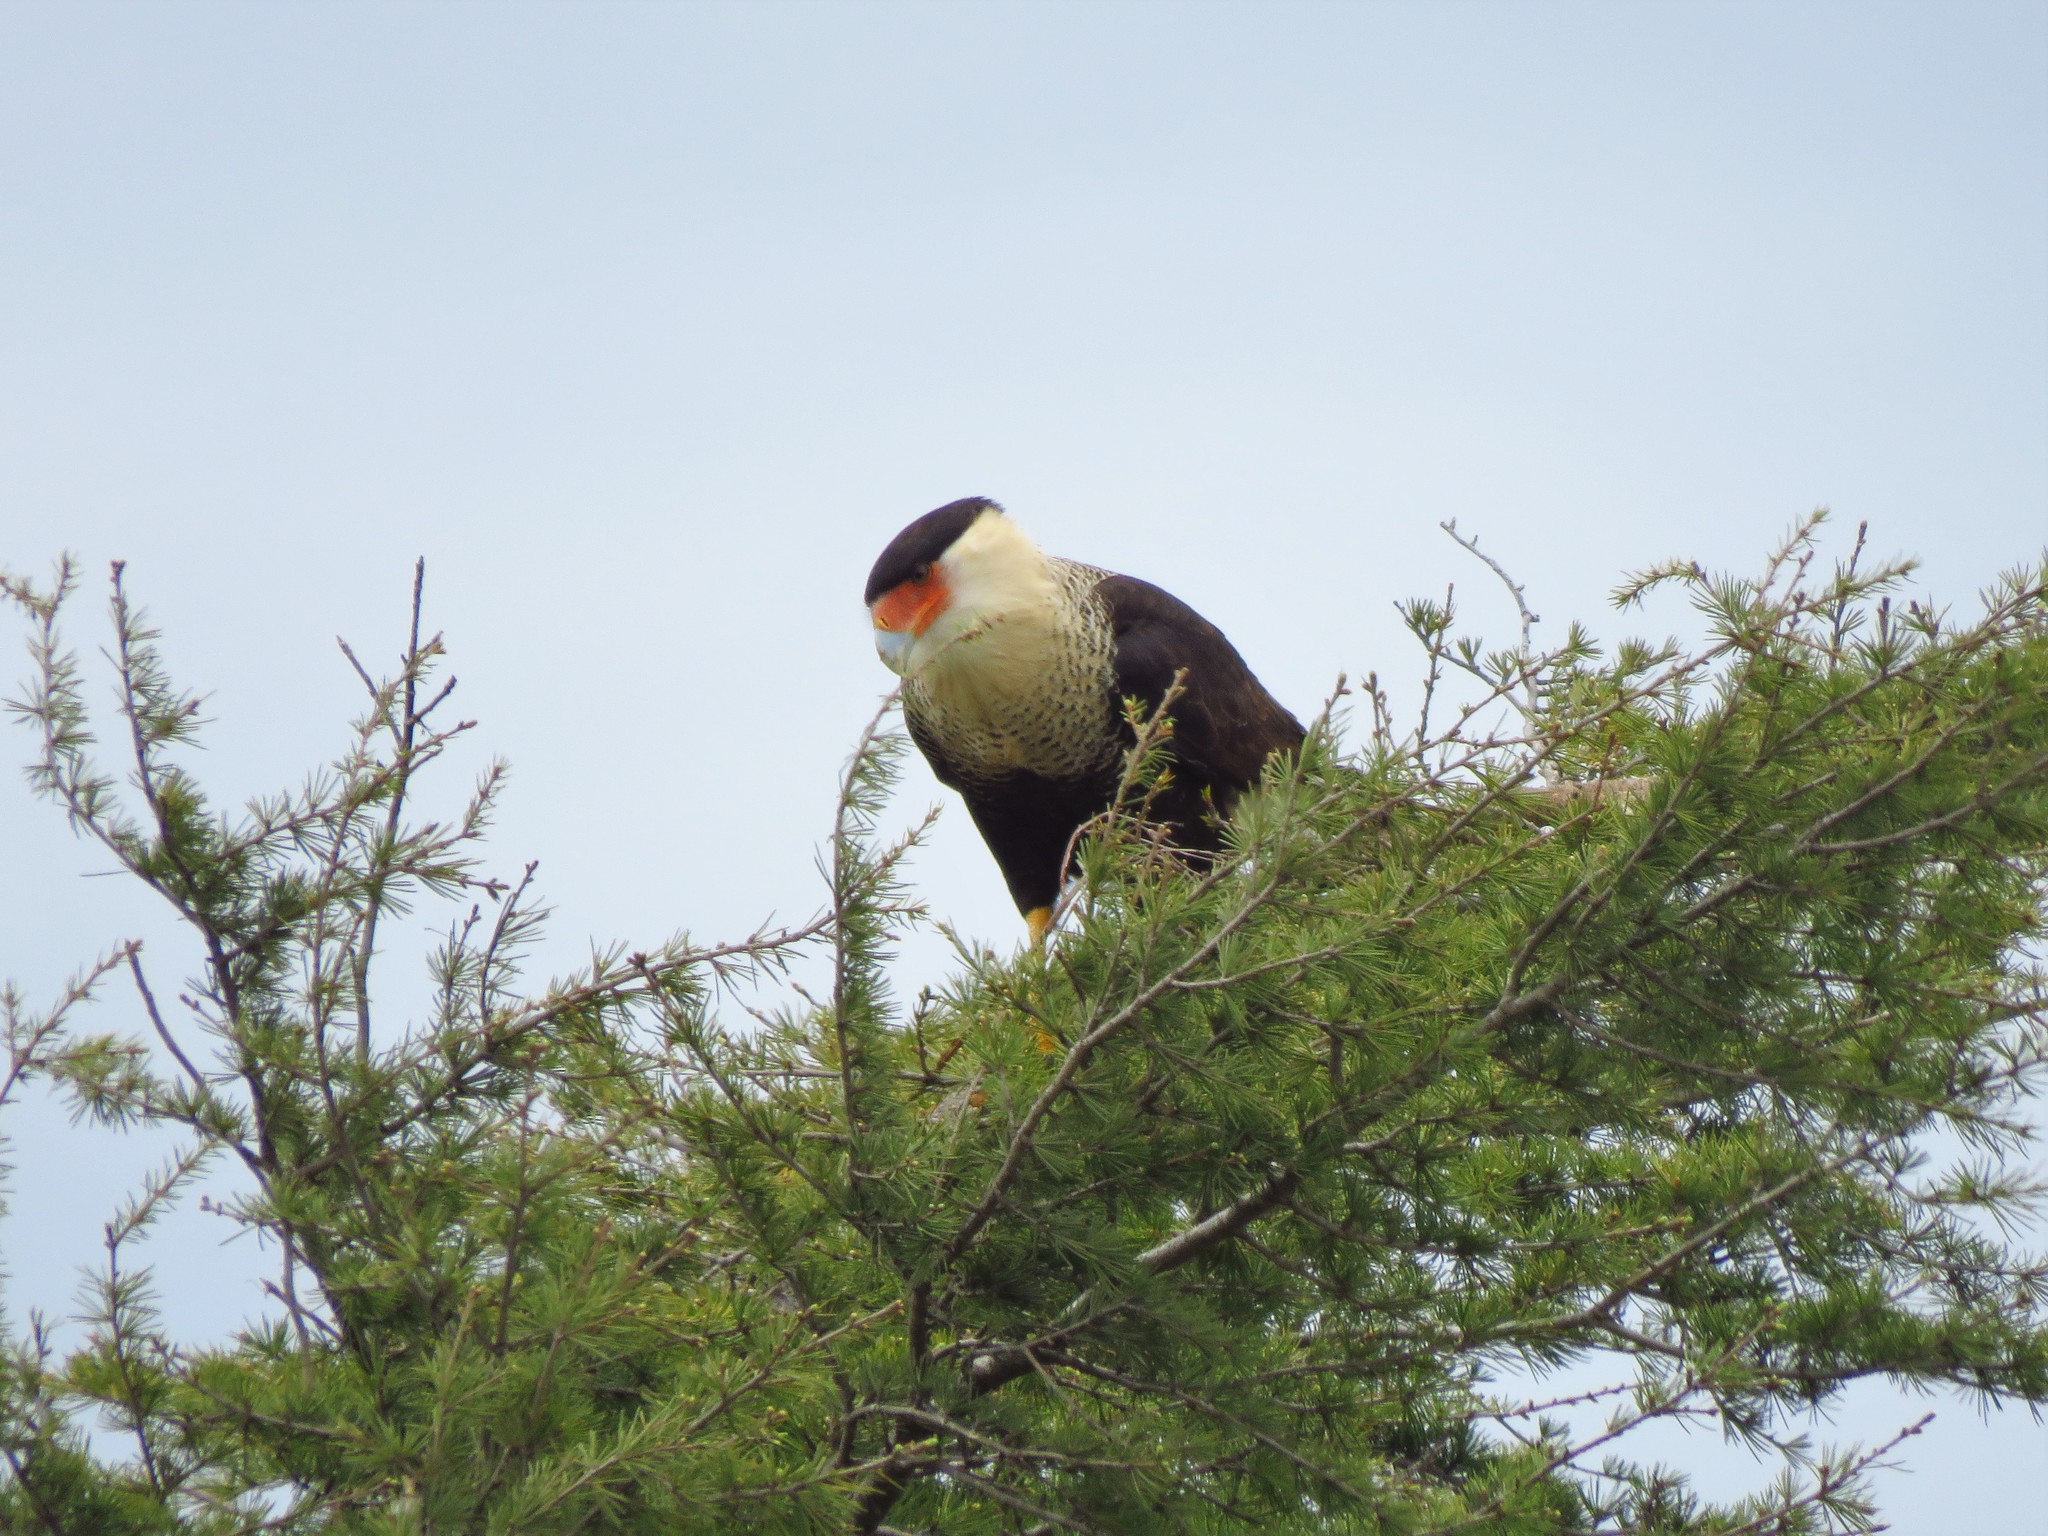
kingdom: Animalia
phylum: Chordata
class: Aves
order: Falconiformes
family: Falconidae
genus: Caracara
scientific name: Caracara plancus
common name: Southern caracara
